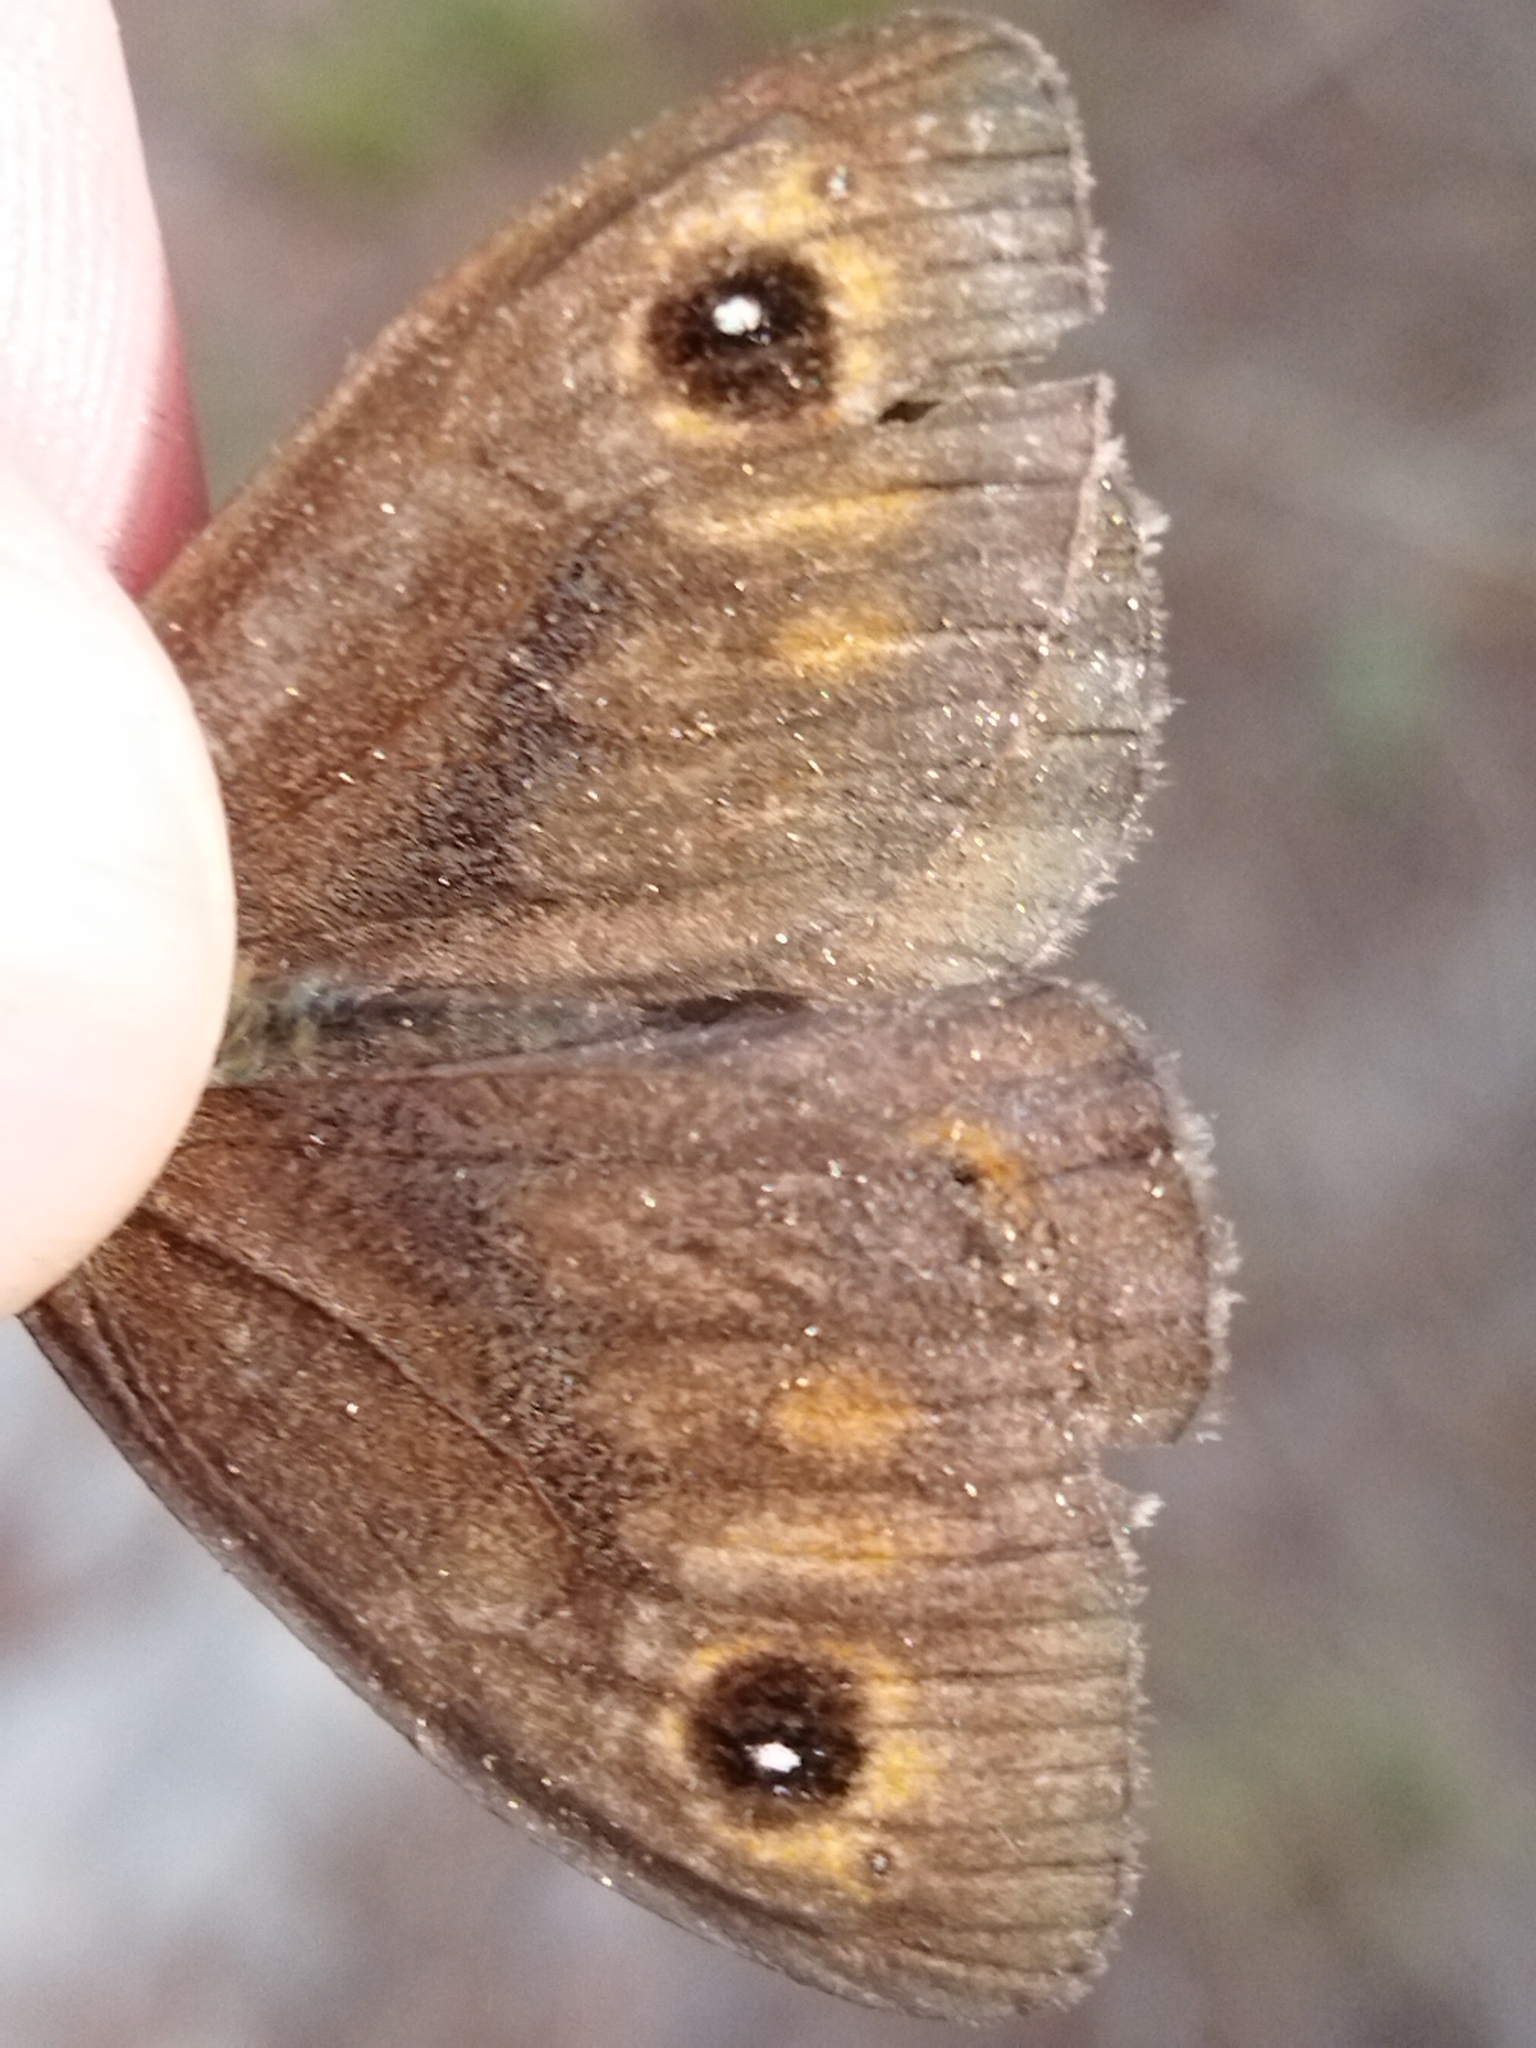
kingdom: Animalia
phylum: Arthropoda
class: Insecta
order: Lepidoptera
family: Nymphalidae
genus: Lasiommata
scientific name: Lasiommata
